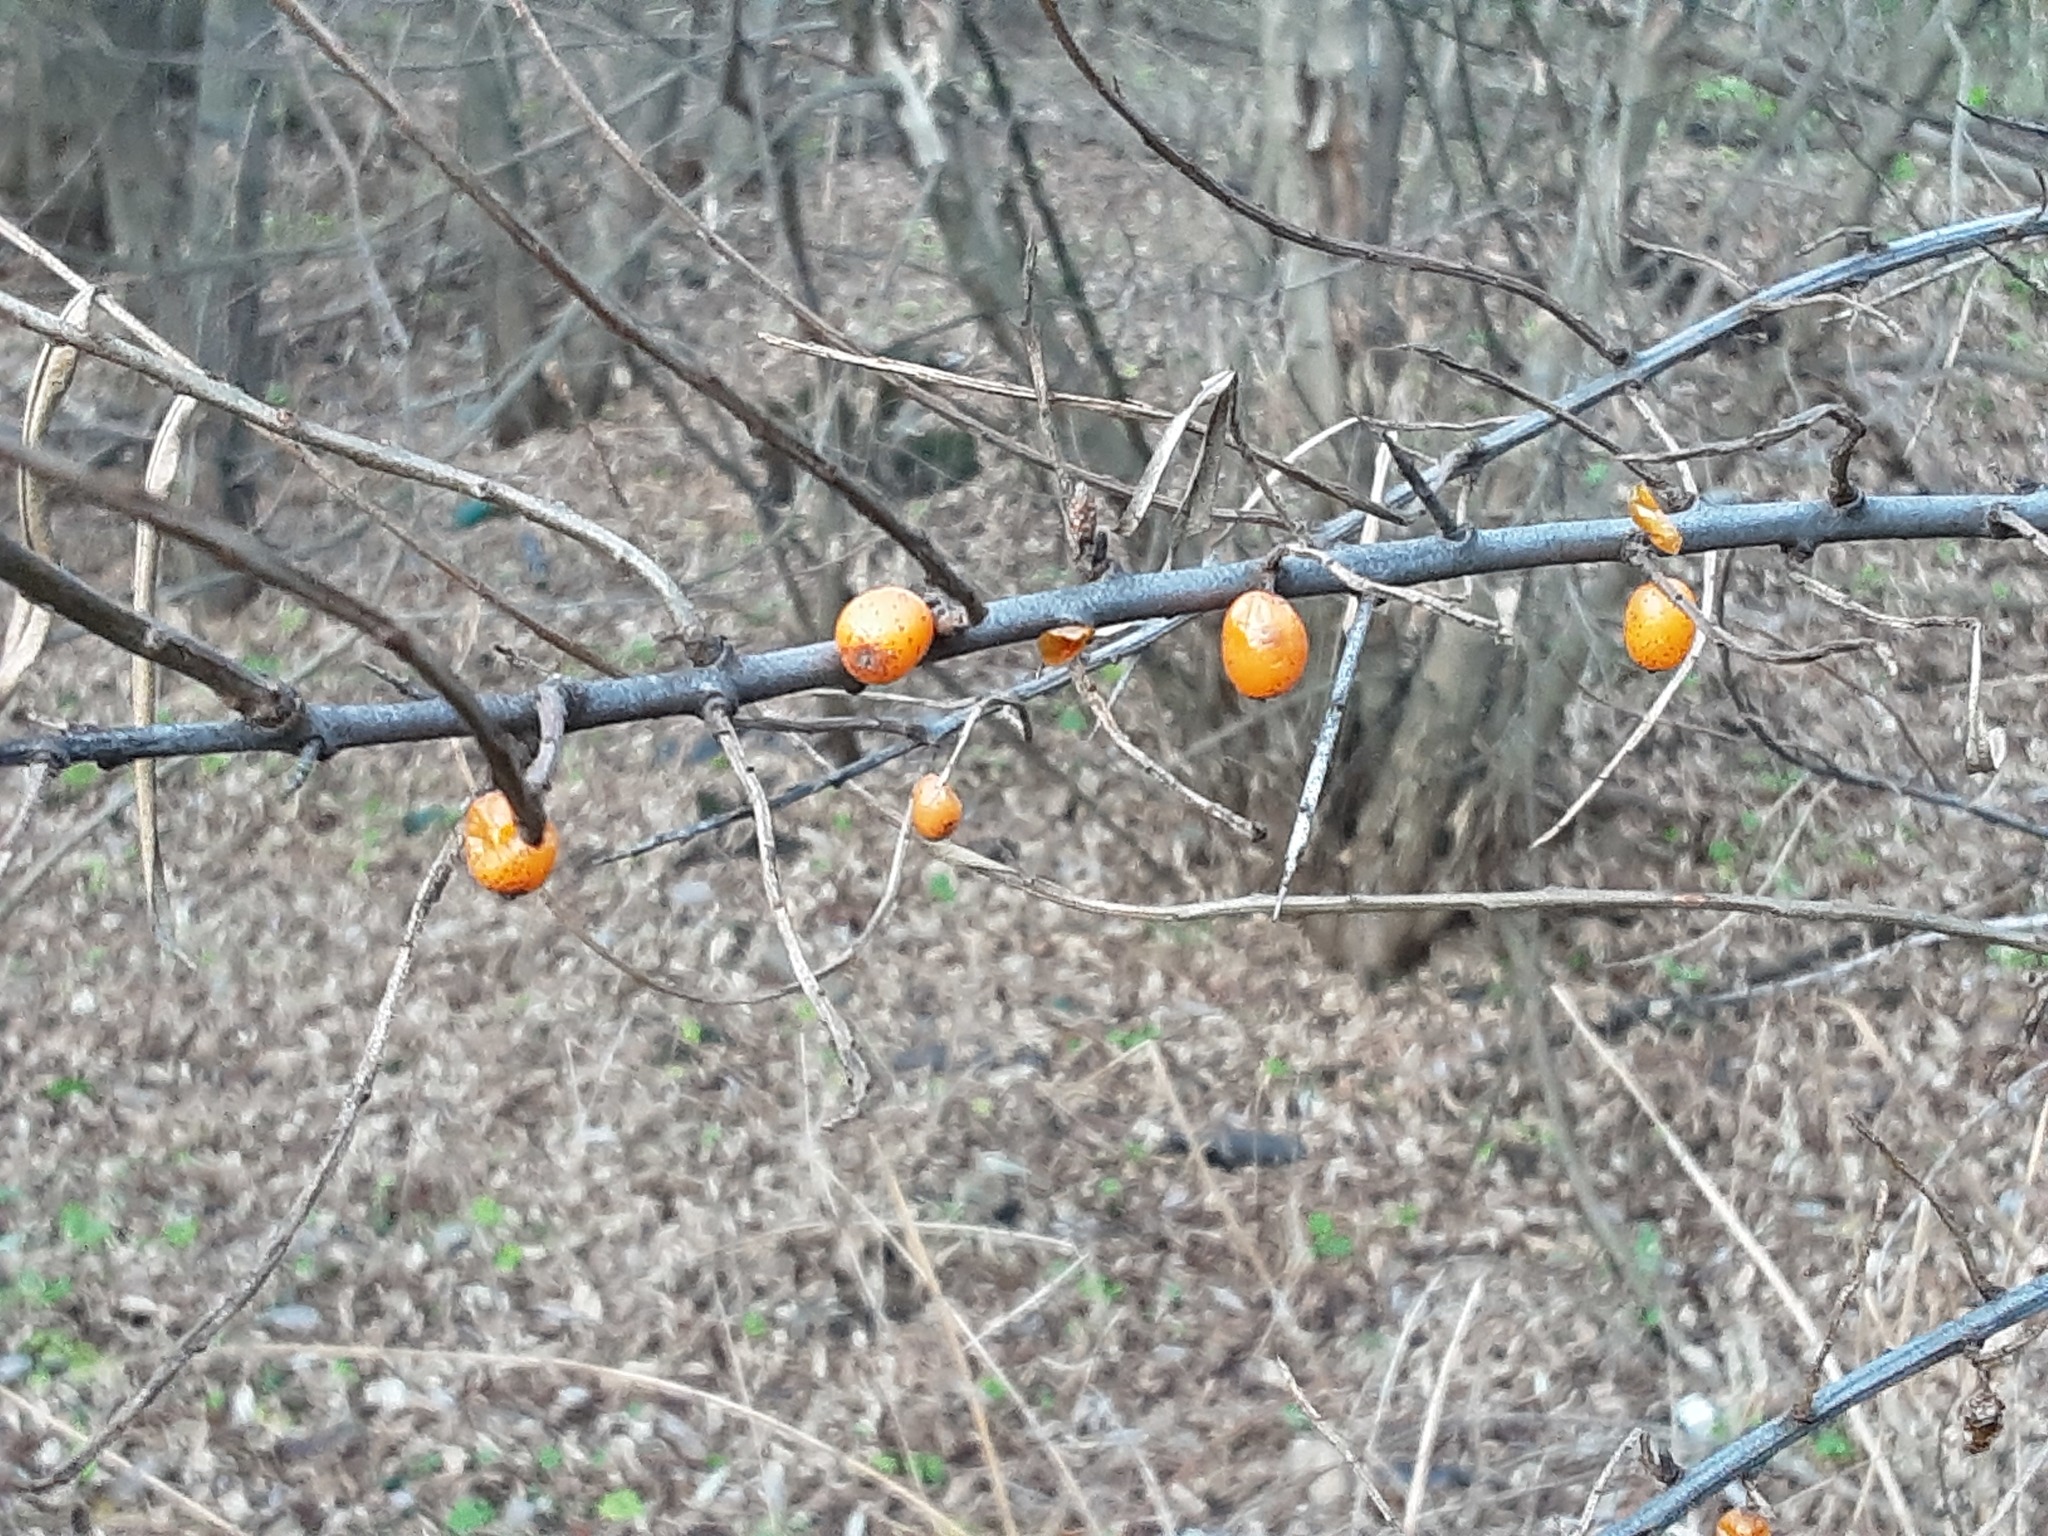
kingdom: Plantae
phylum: Tracheophyta
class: Magnoliopsida
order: Rosales
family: Elaeagnaceae
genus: Hippophae
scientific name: Hippophae rhamnoides
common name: Sea-buckthorn
